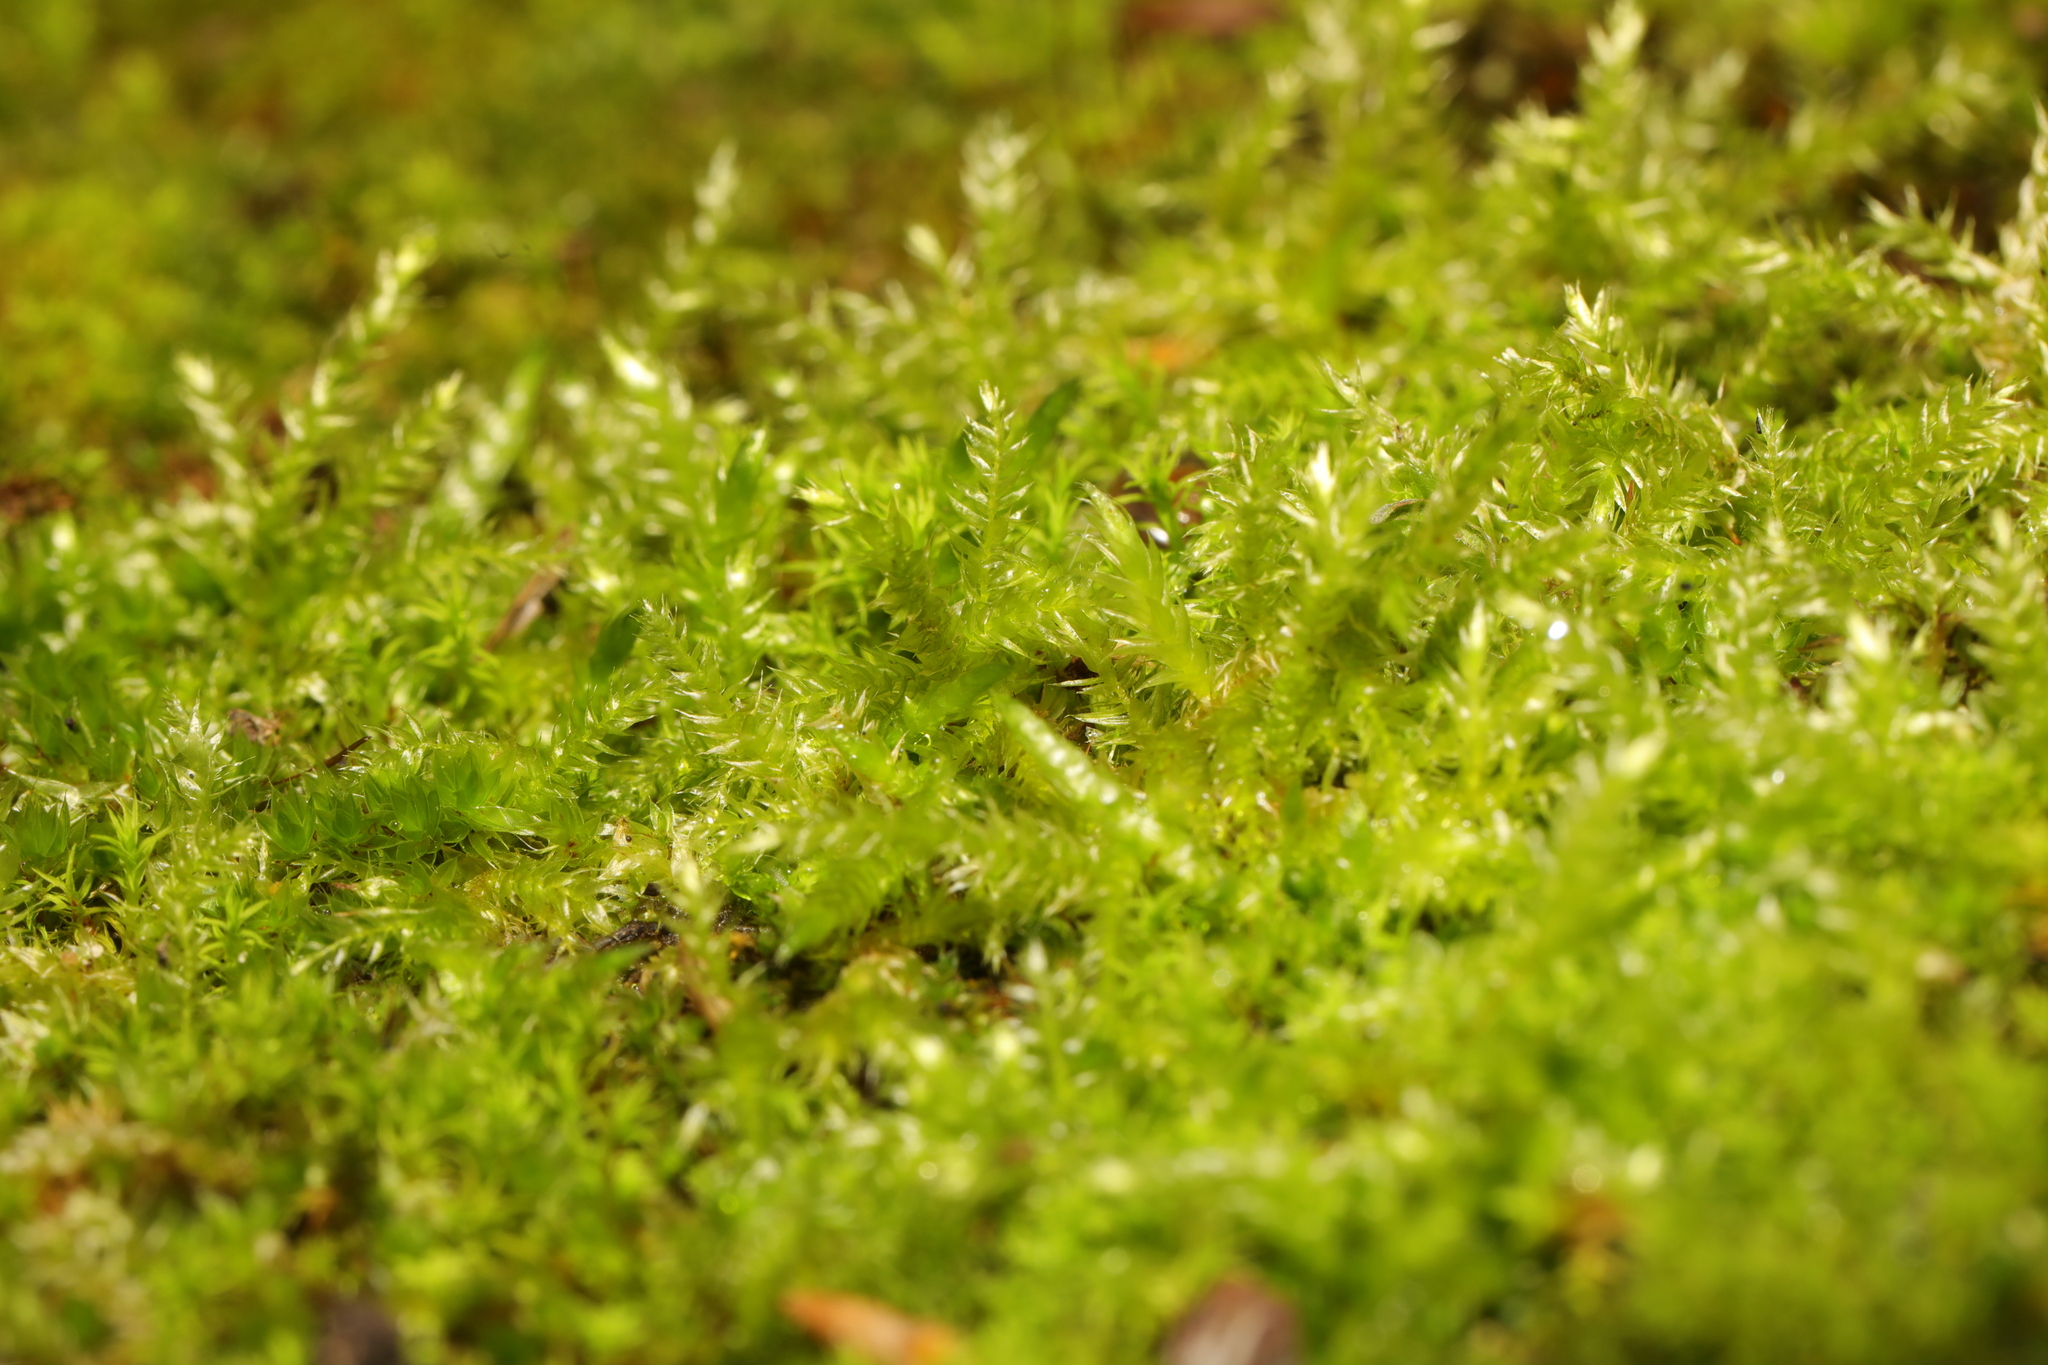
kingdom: Plantae
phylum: Bryophyta
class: Bryopsida
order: Hypnales
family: Hypnaceae
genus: Hypnum
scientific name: Hypnum resupinatum
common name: Supine plait-moss
